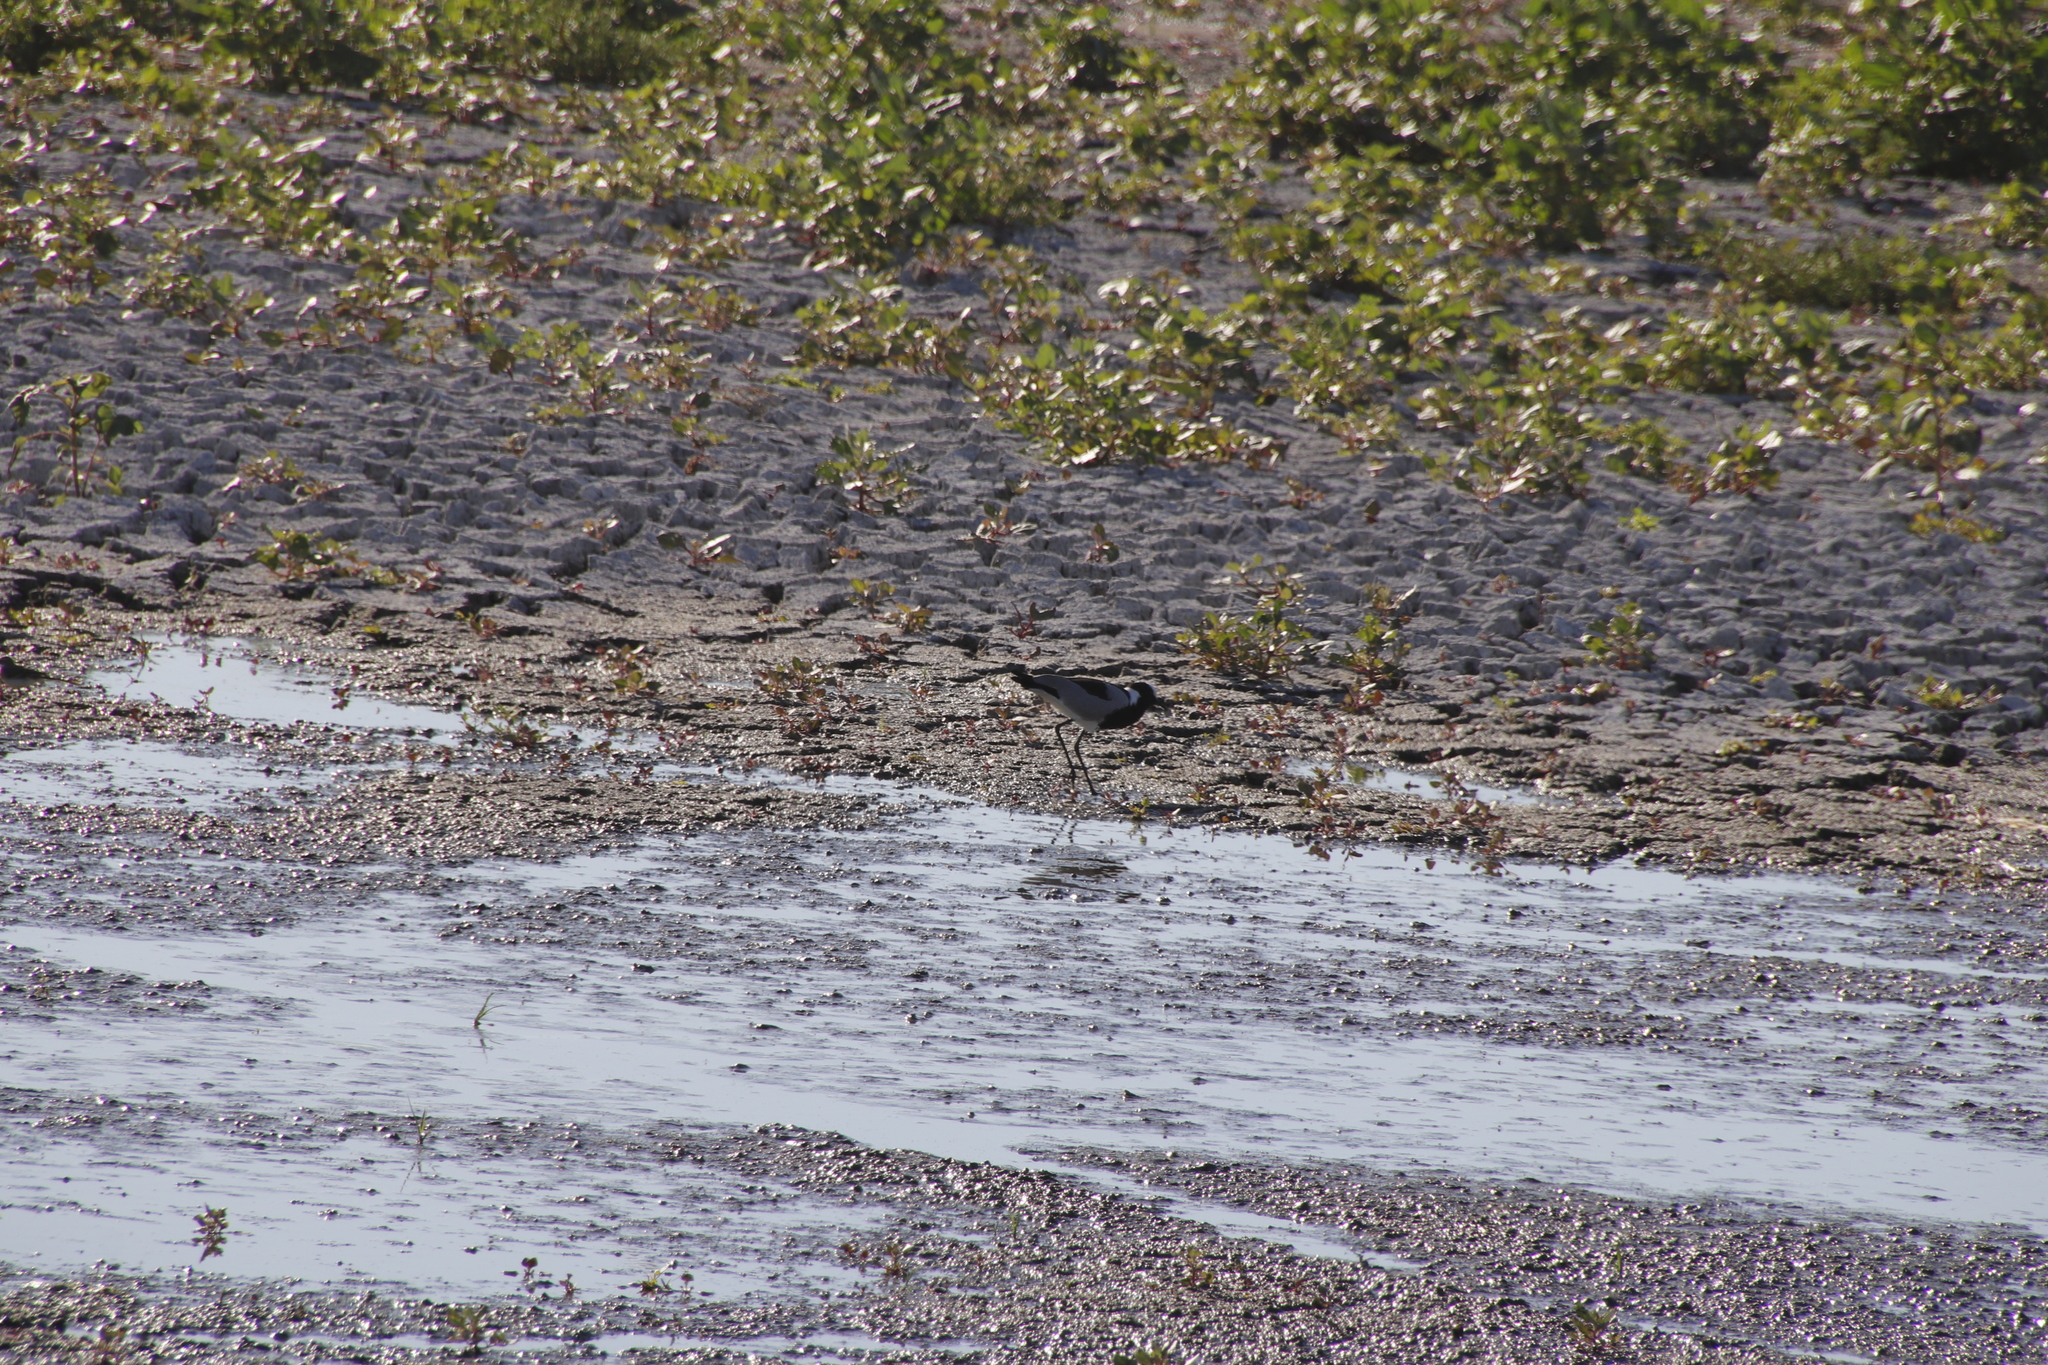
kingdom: Animalia
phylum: Chordata
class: Aves
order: Charadriiformes
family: Charadriidae
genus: Vanellus
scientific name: Vanellus armatus
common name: Blacksmith lapwing
